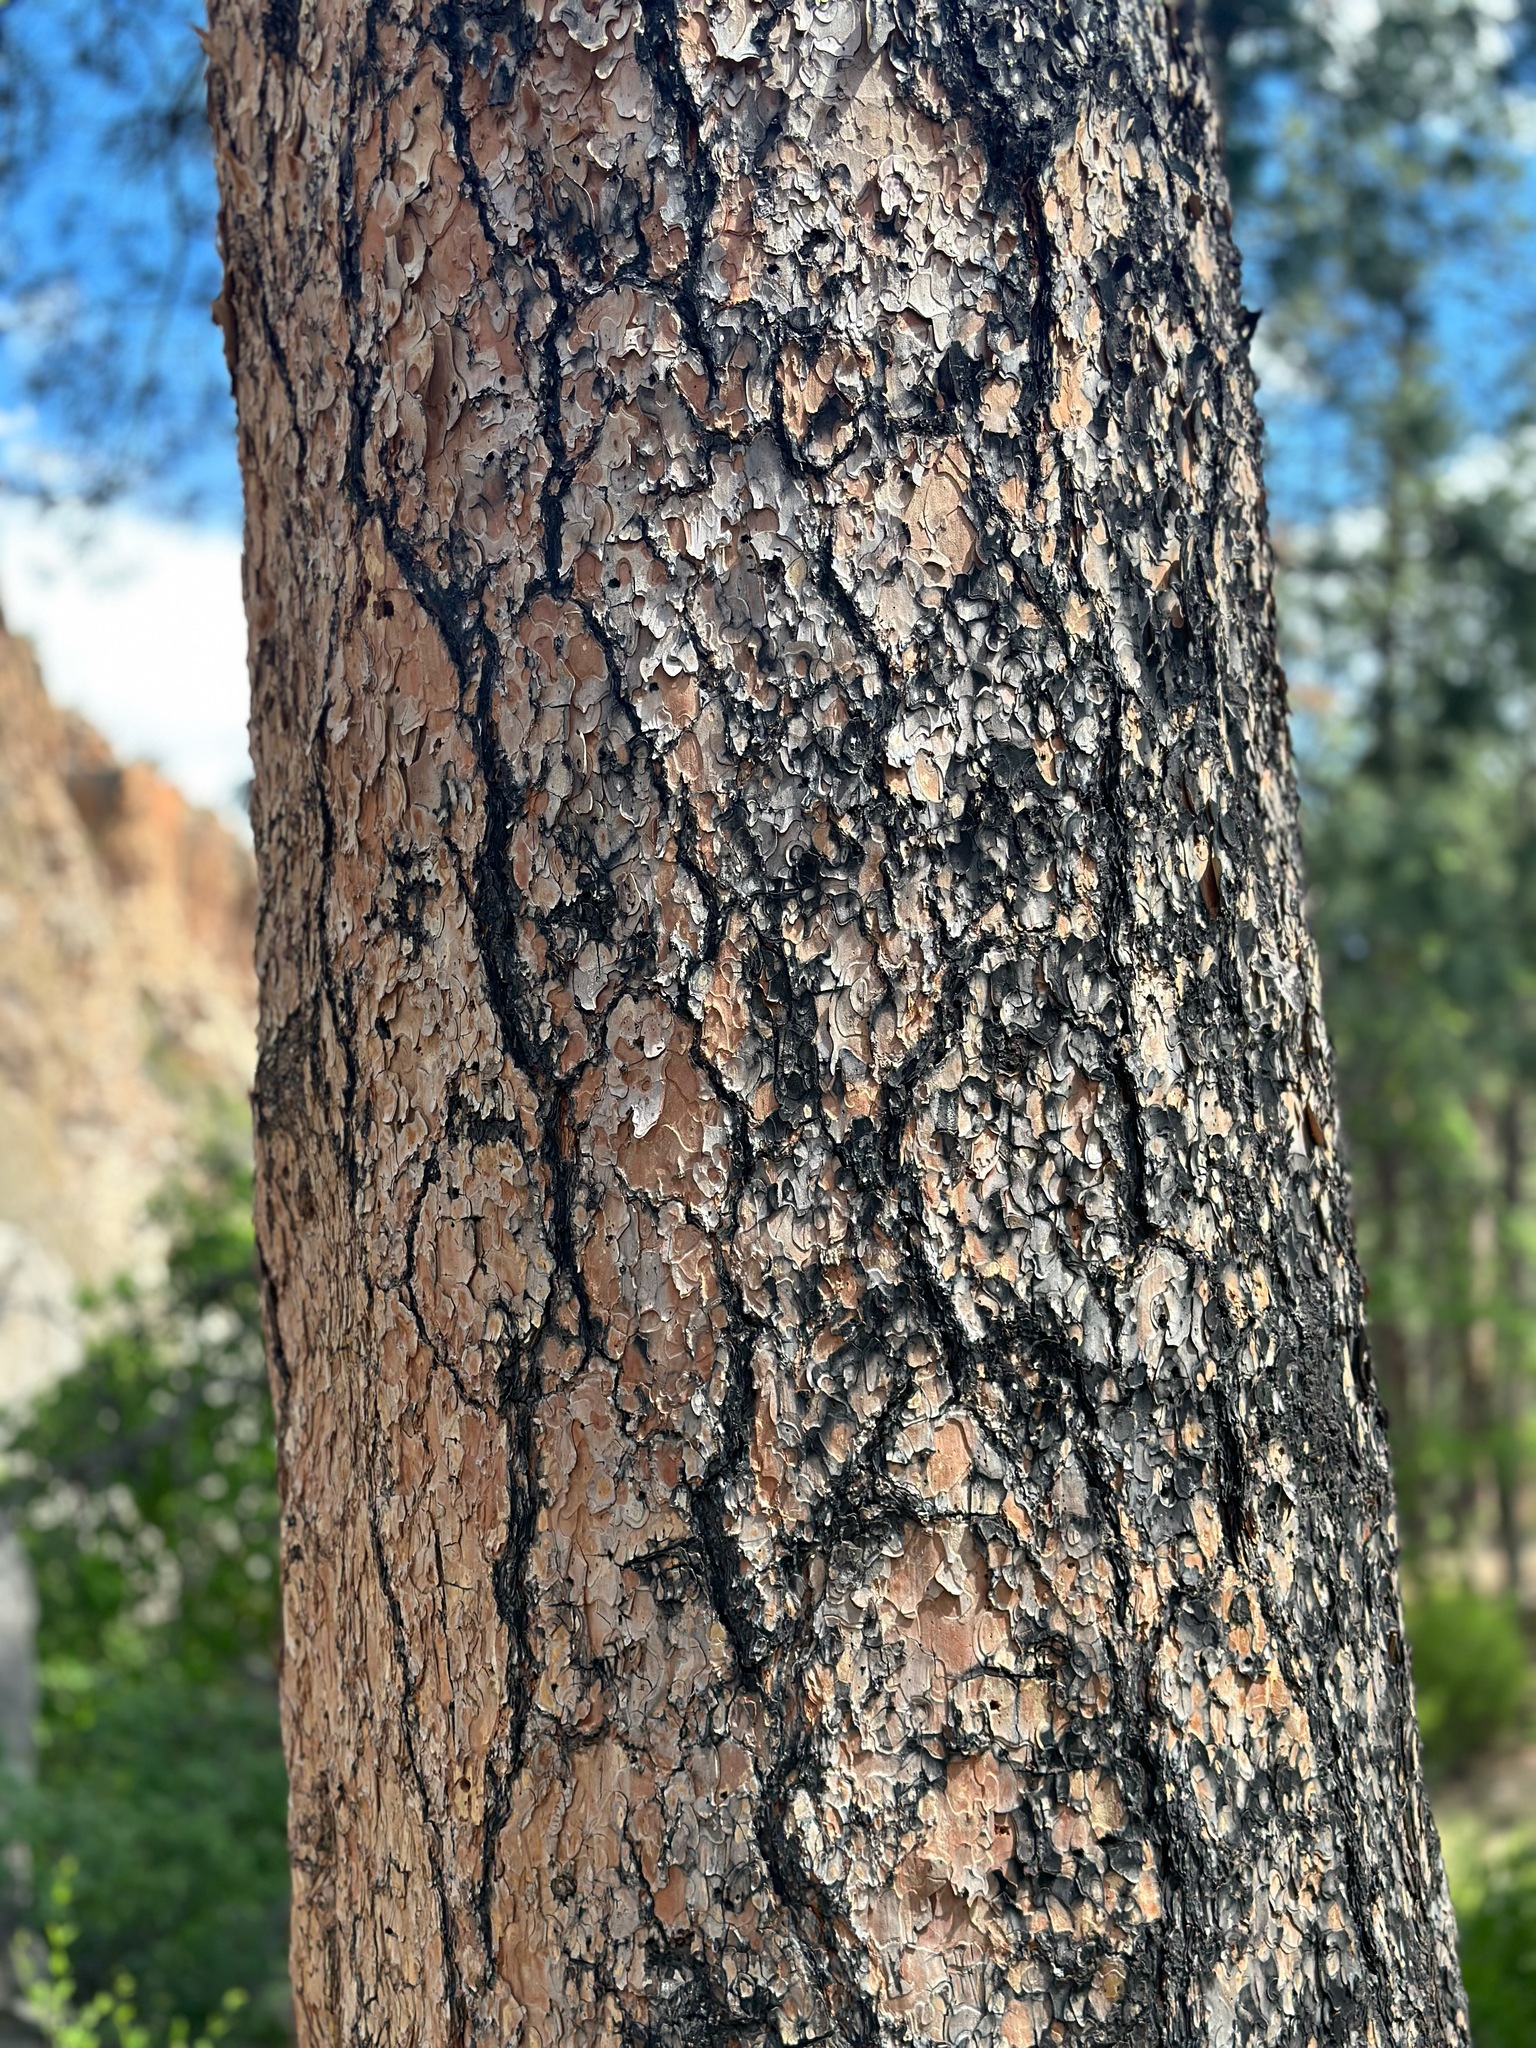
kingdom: Plantae
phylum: Tracheophyta
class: Pinopsida
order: Pinales
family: Pinaceae
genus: Pinus
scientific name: Pinus ponderosa
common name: Western yellow-pine
